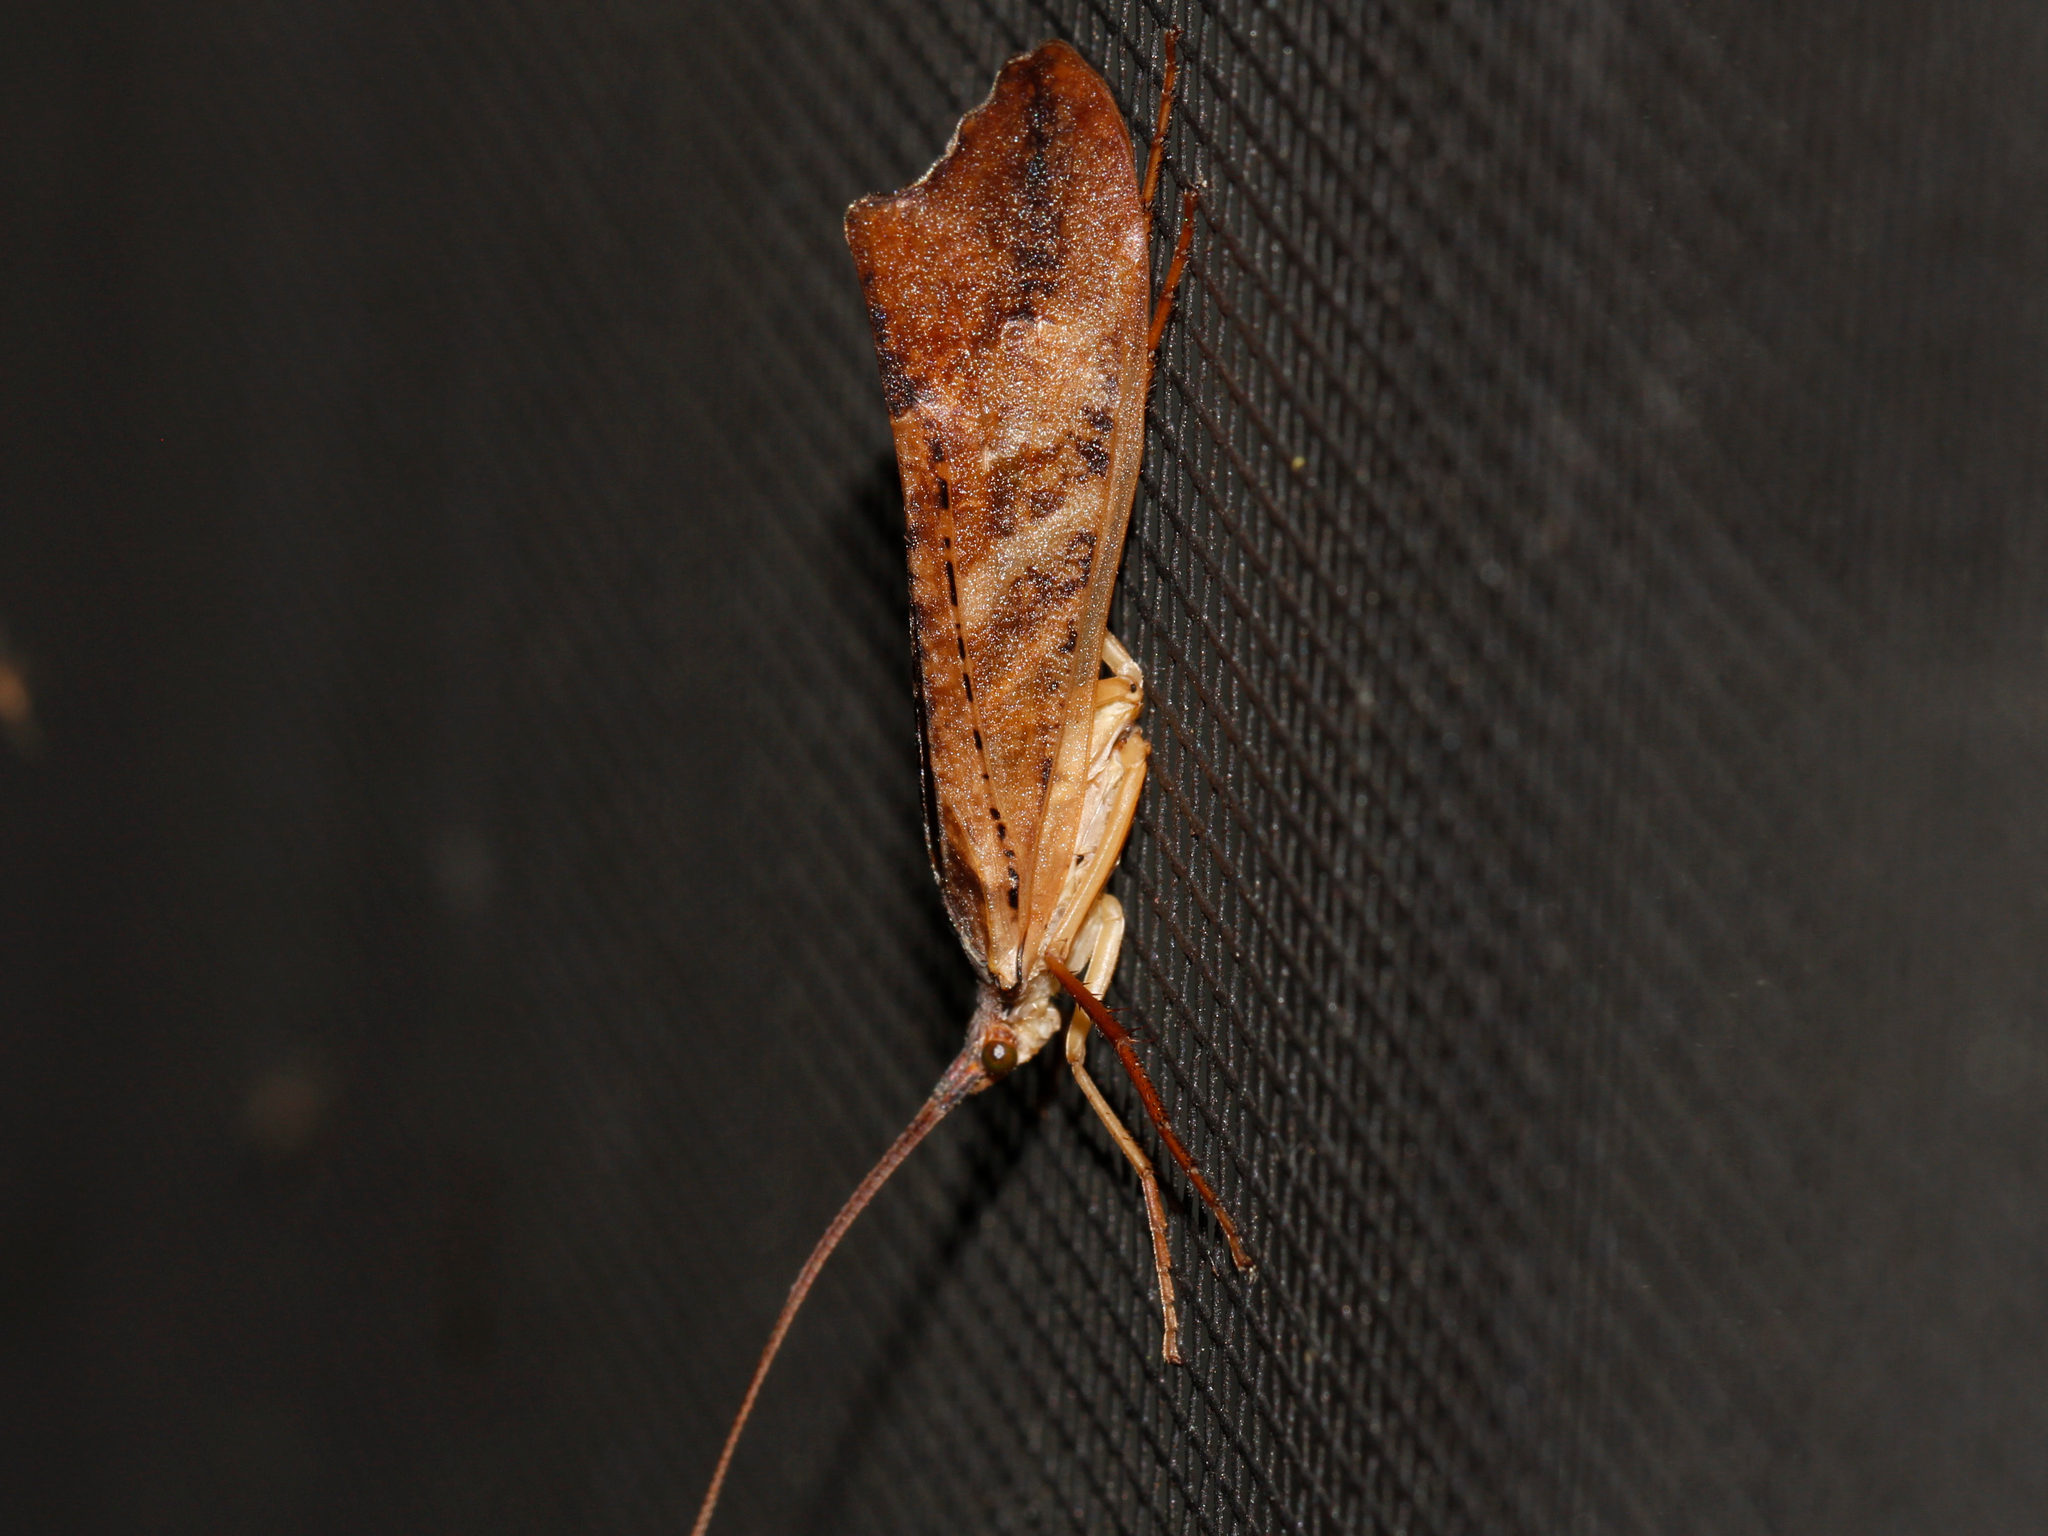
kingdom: Animalia
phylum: Arthropoda
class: Insecta
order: Trichoptera
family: Limnephilidae
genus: Nemotaulius
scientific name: Nemotaulius hostilis
